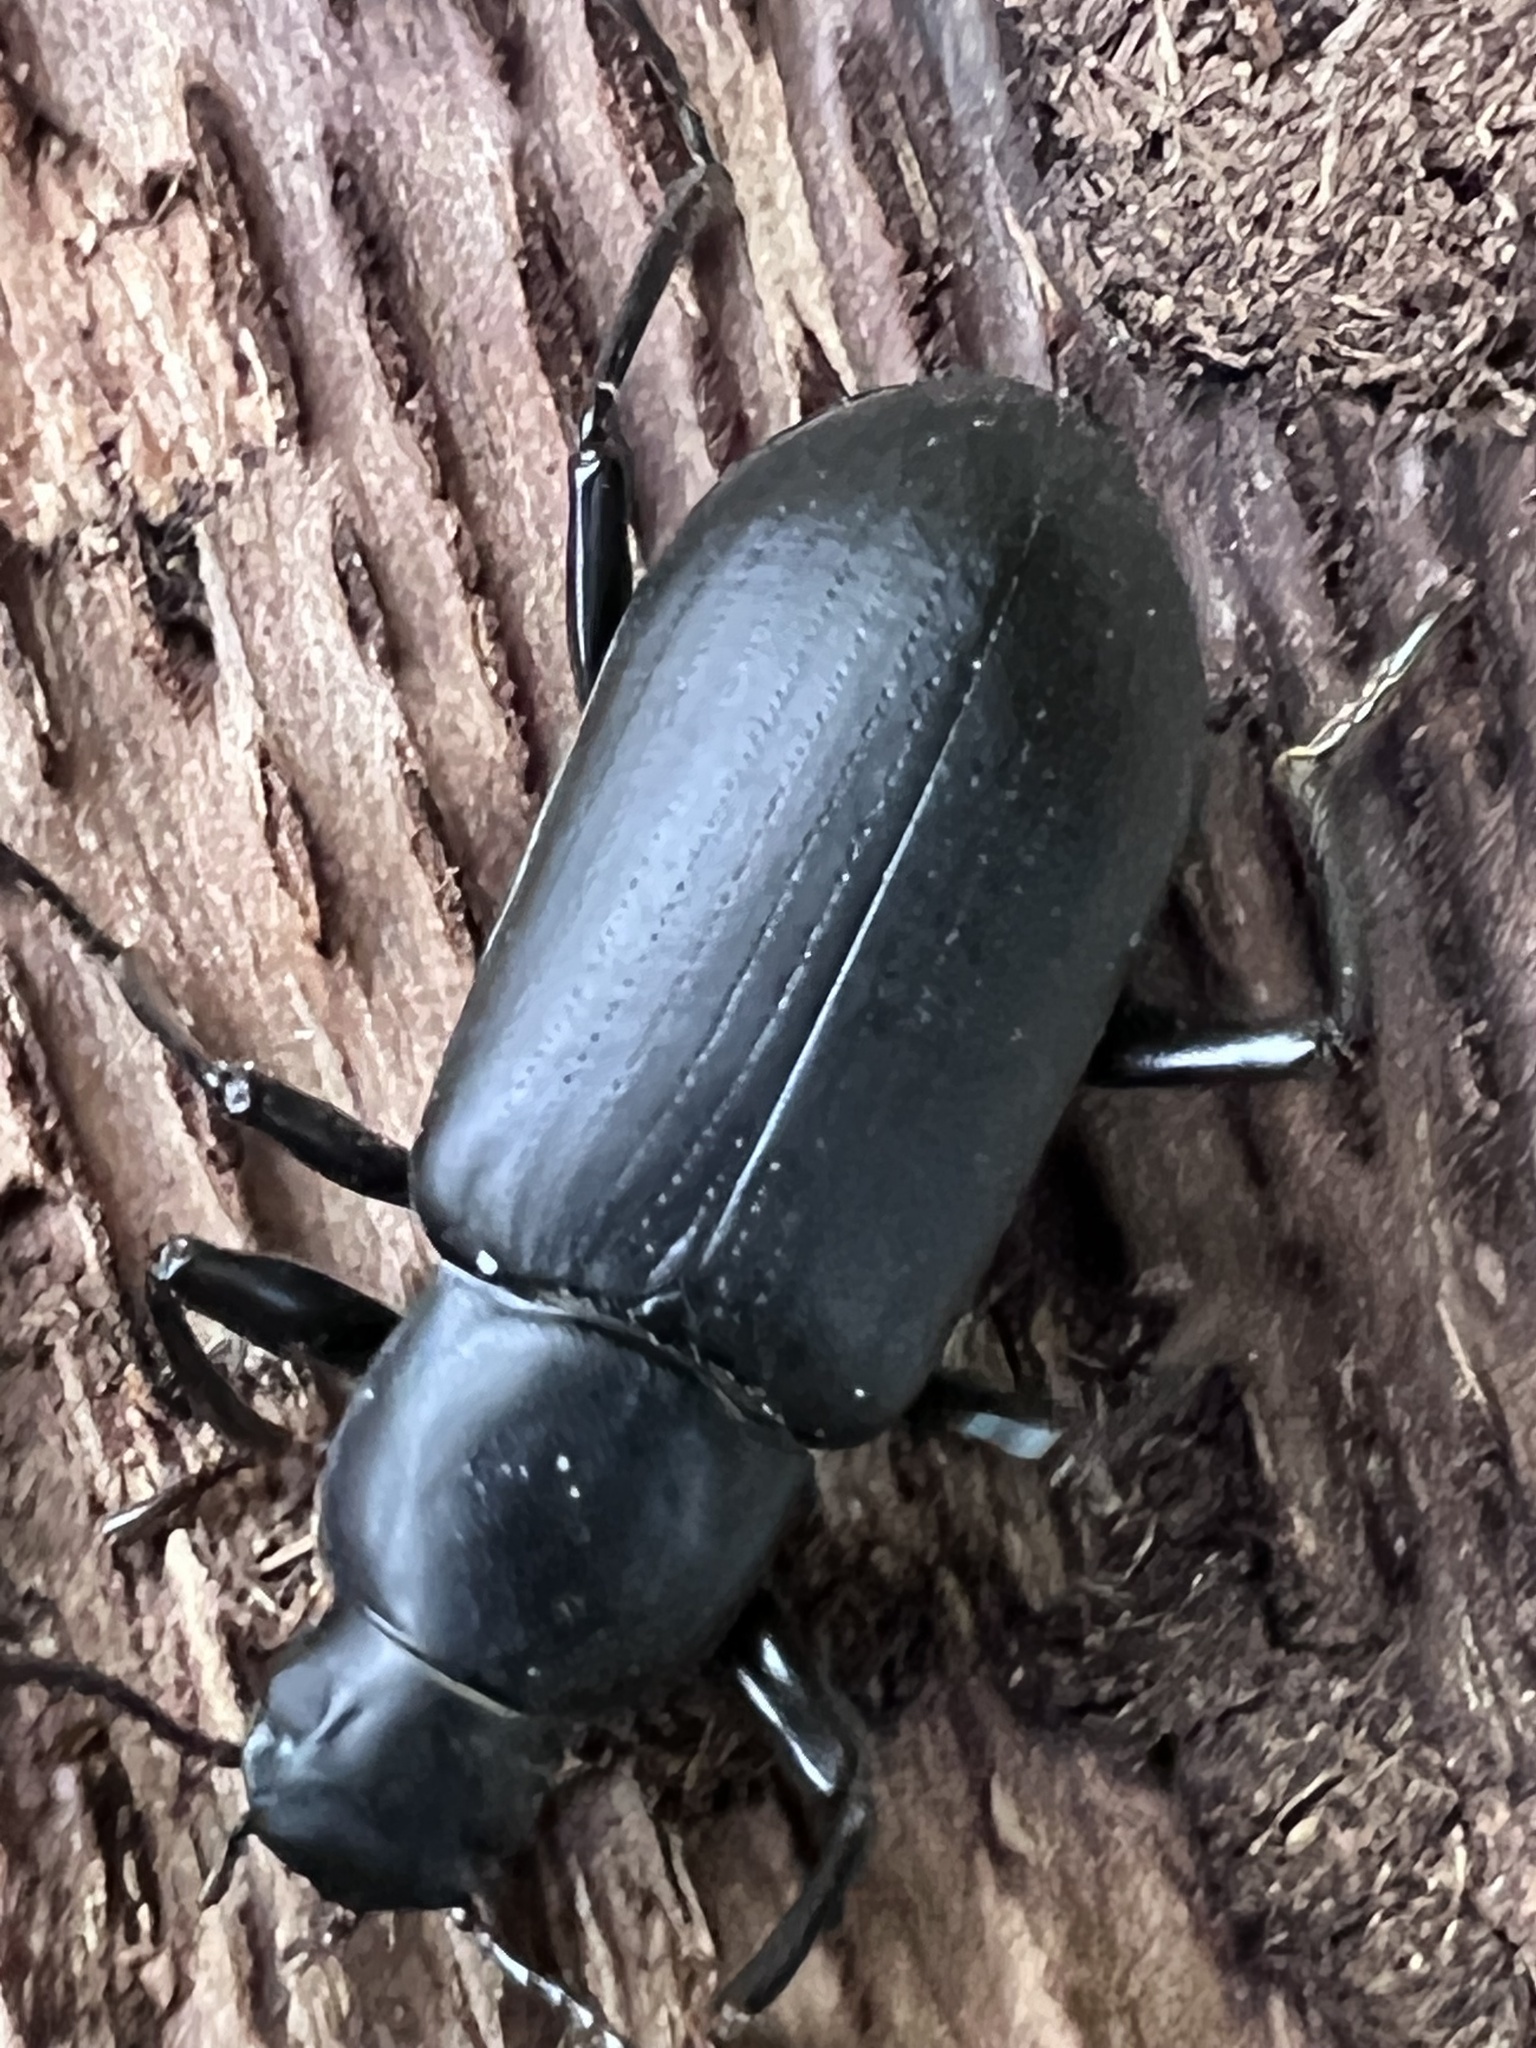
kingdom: Animalia
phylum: Arthropoda
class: Insecta
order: Coleoptera
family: Tenebrionidae
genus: Alobates
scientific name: Alobates
